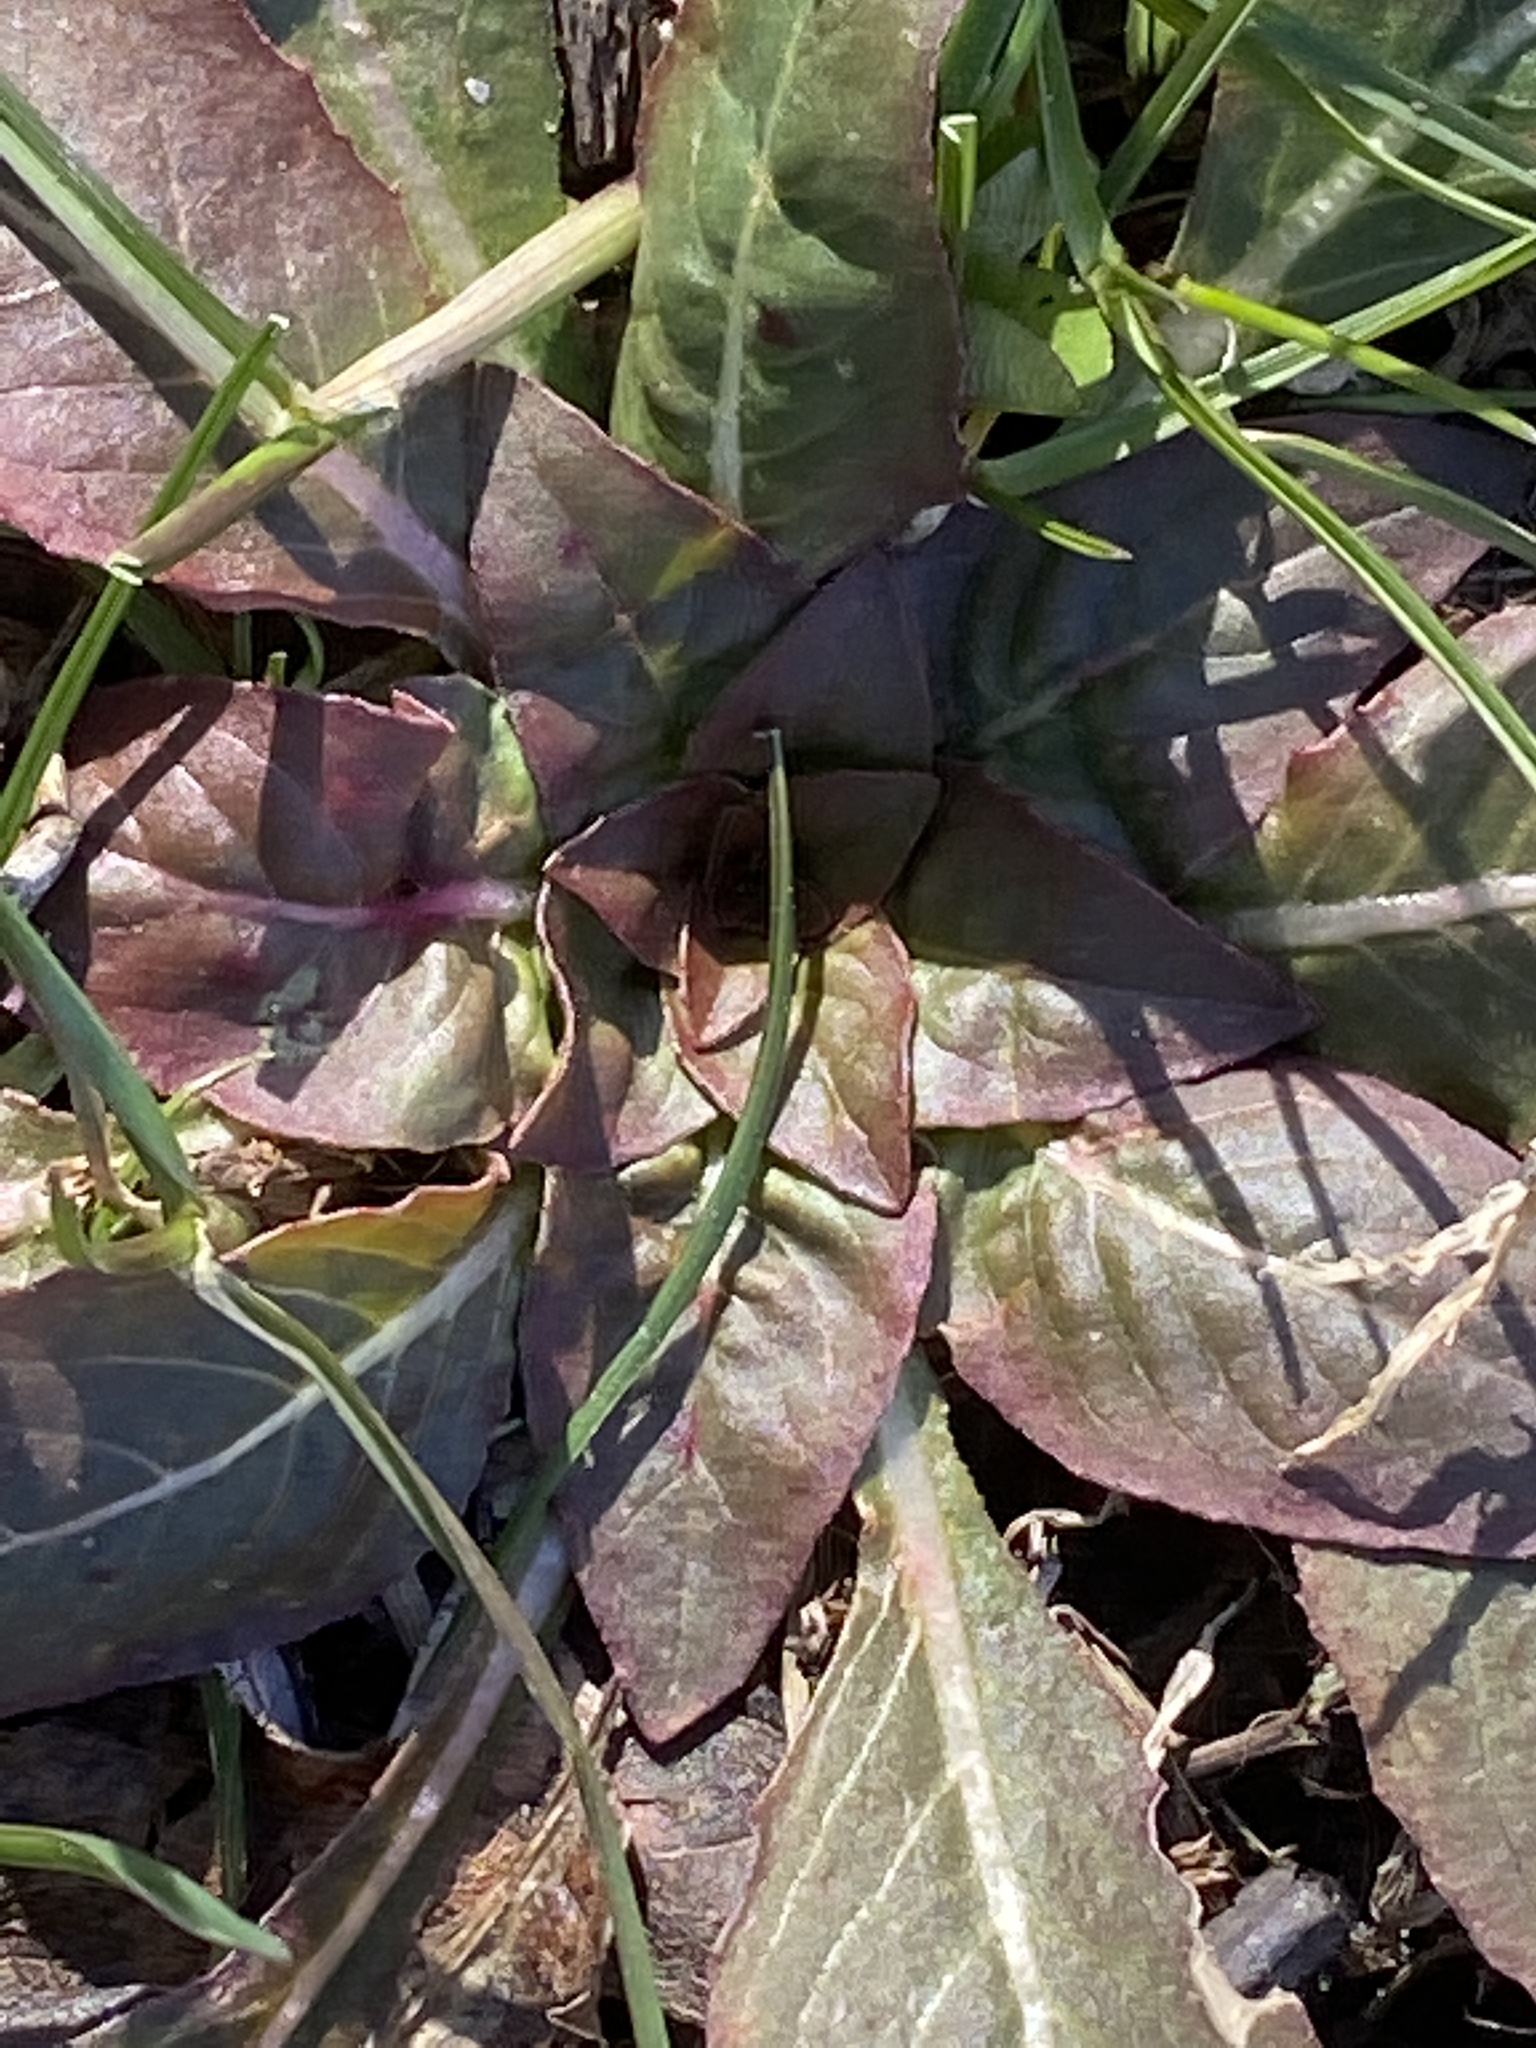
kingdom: Plantae
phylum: Tracheophyta
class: Magnoliopsida
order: Myrtales
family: Onagraceae
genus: Oenothera
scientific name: Oenothera biennis
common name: Common evening-primrose
